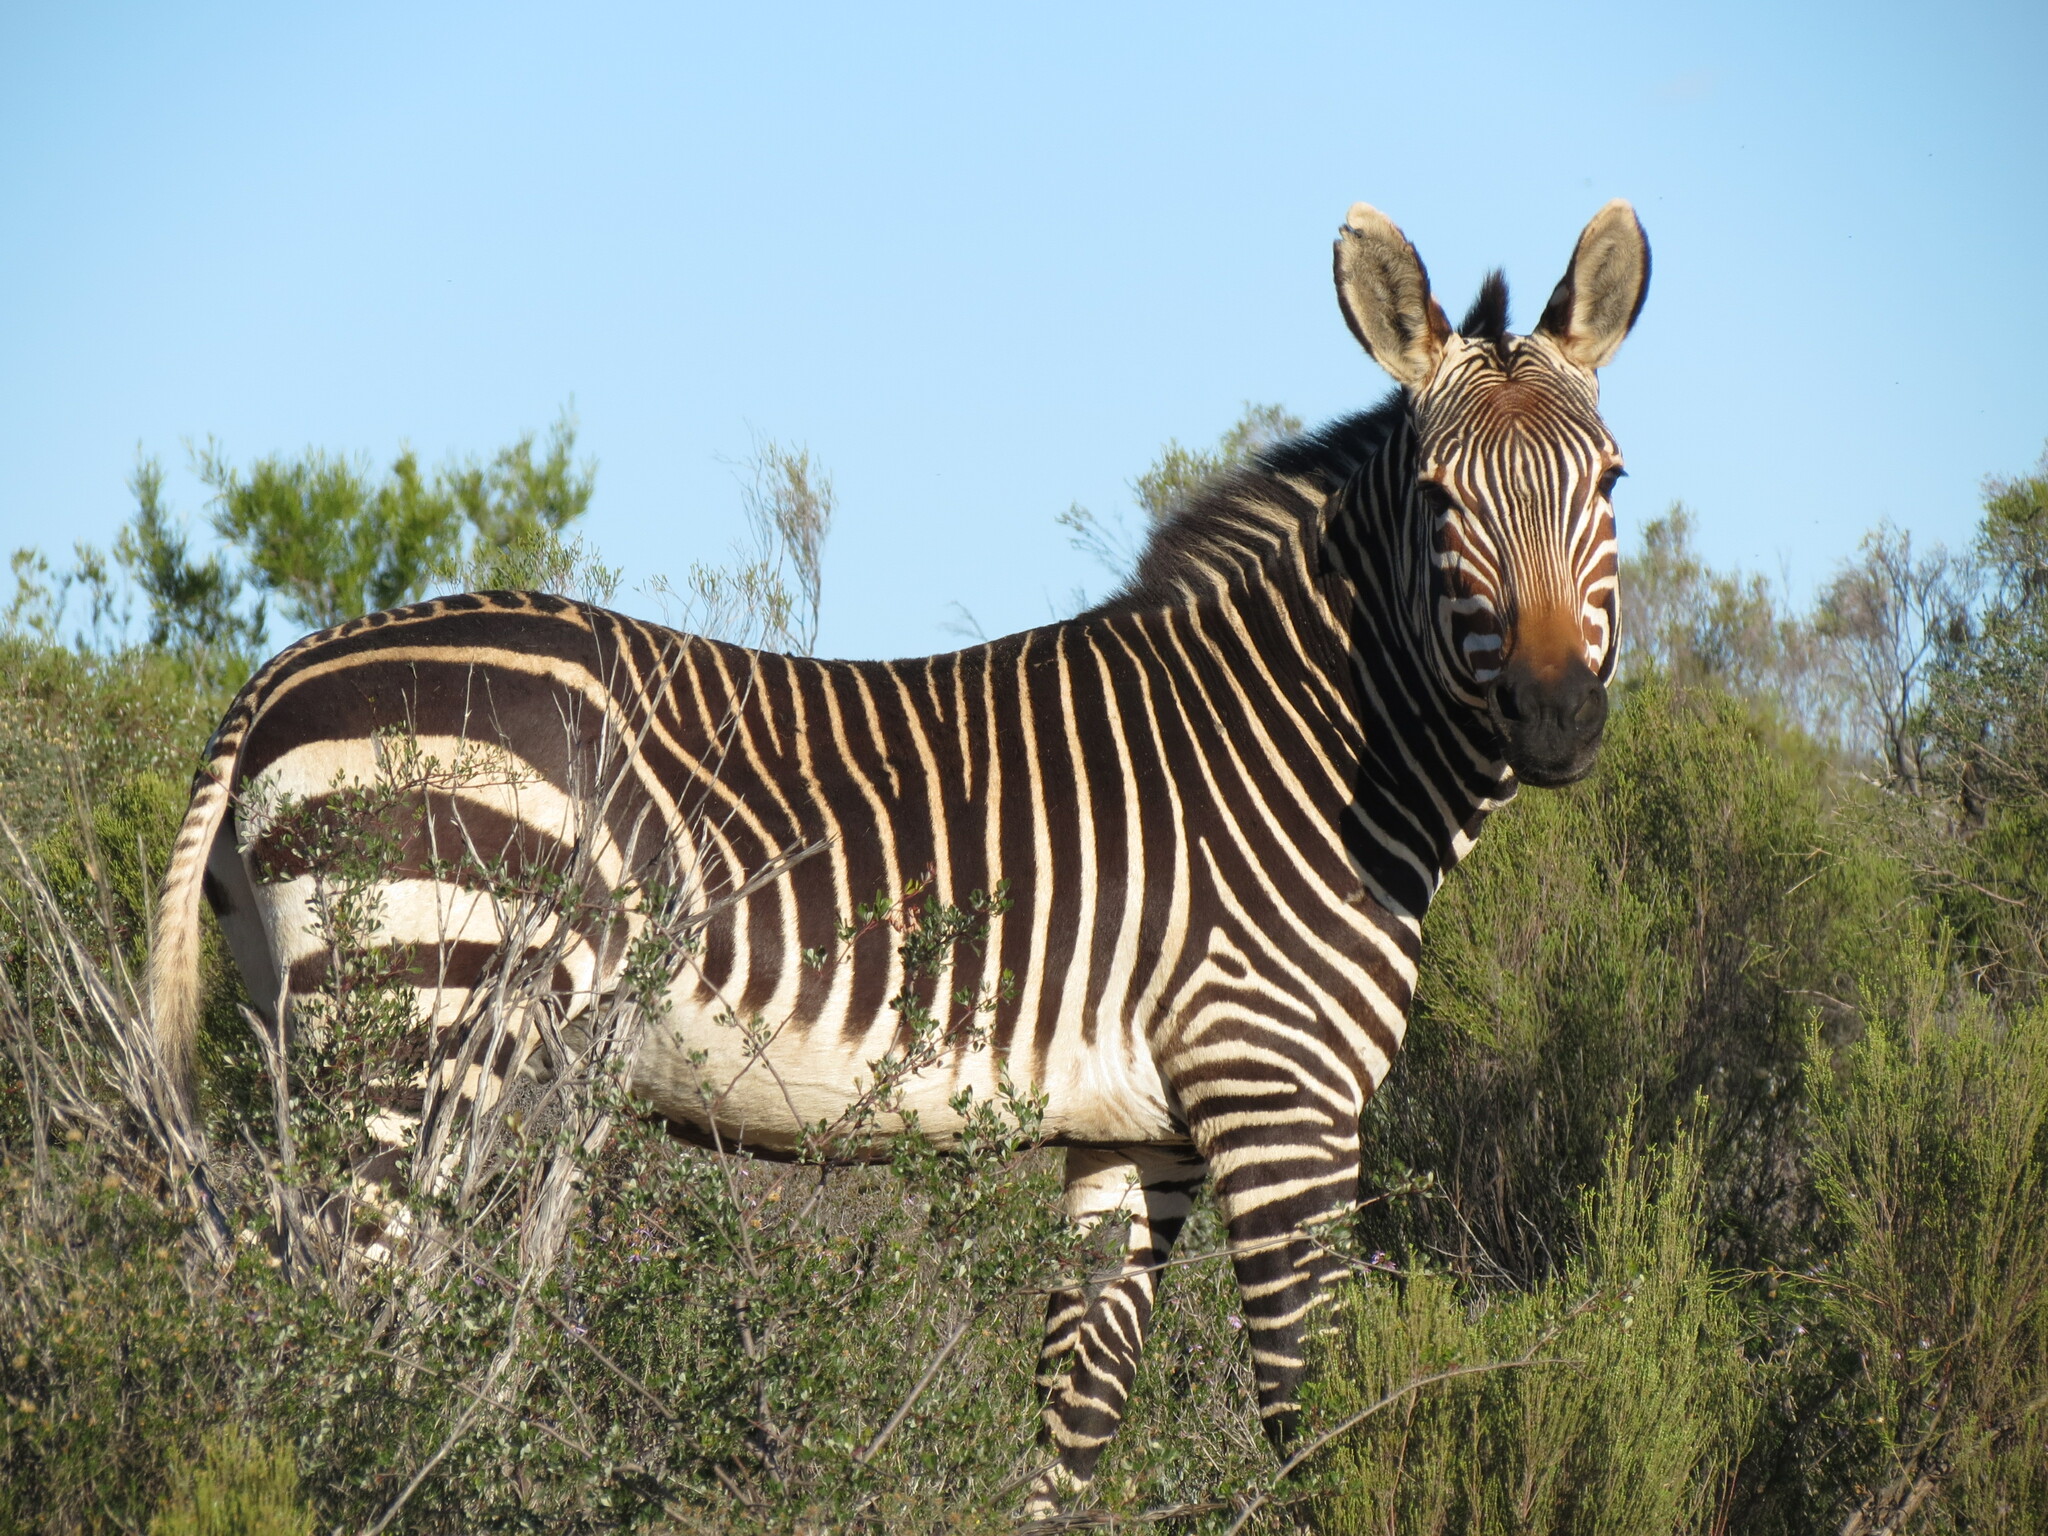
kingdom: Animalia
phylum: Chordata
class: Mammalia
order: Perissodactyla
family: Equidae
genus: Equus
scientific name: Equus zebra
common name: Mountain zebra
